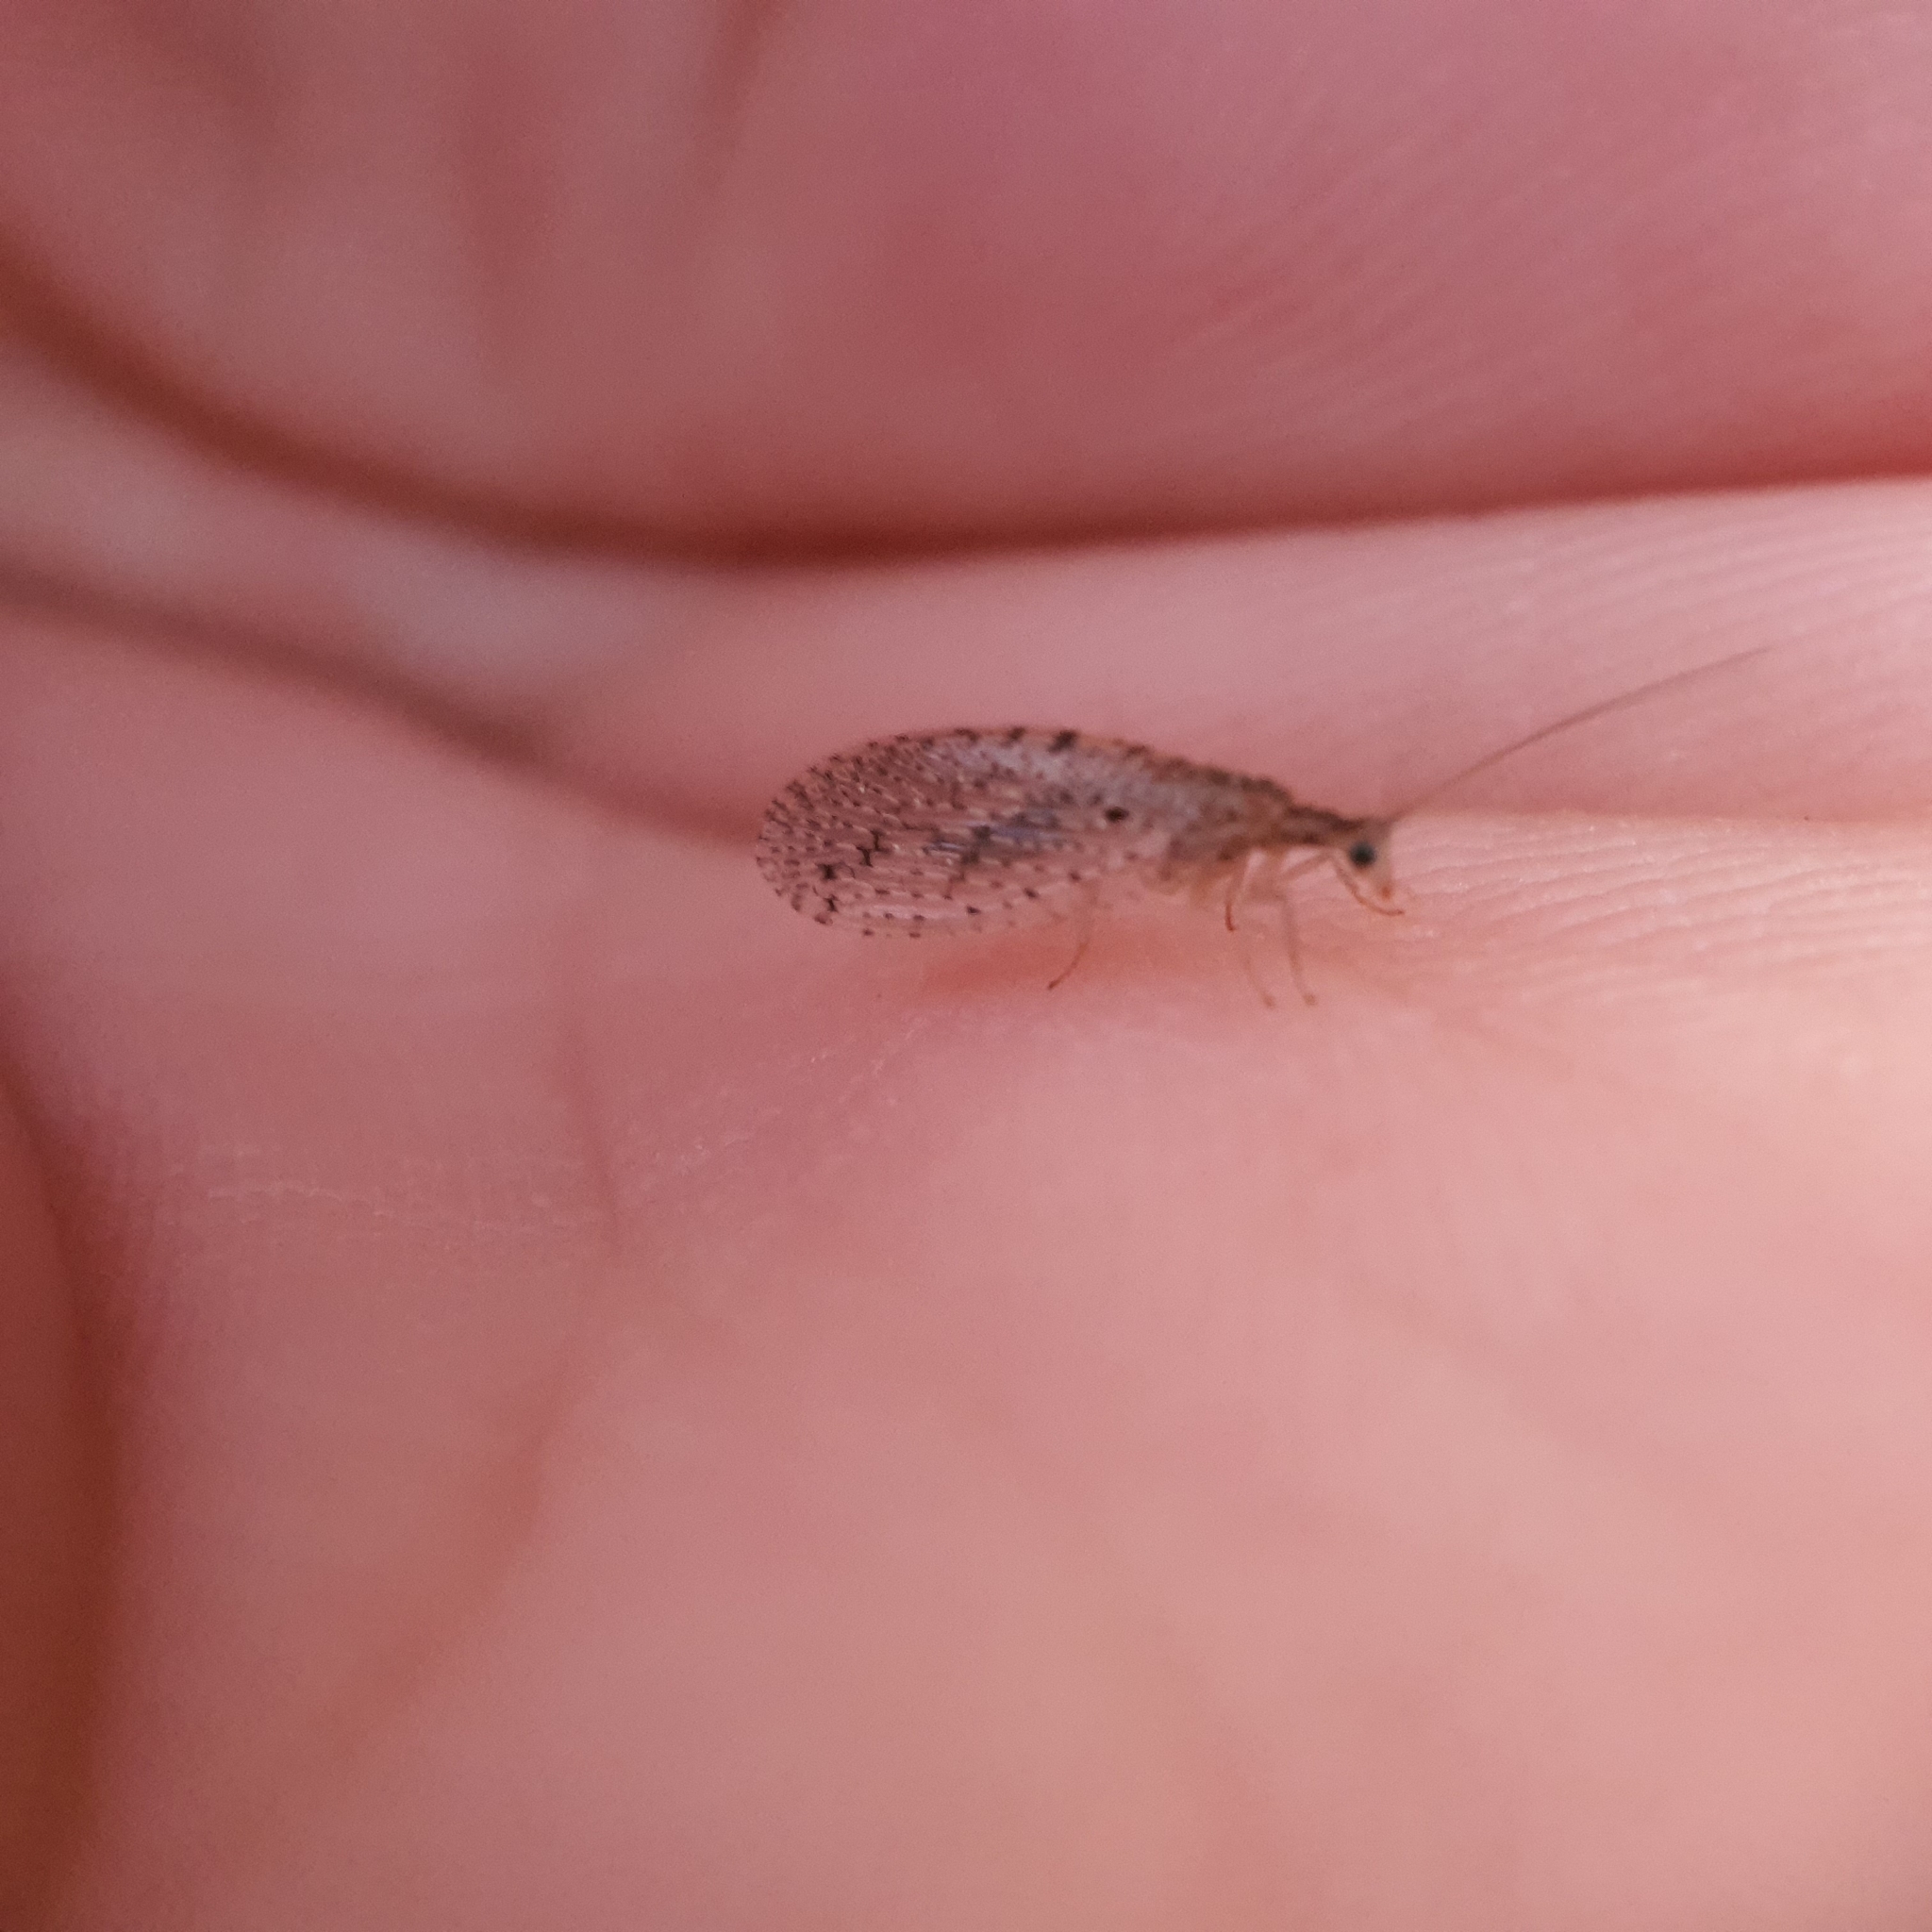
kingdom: Animalia
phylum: Arthropoda
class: Insecta
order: Neuroptera
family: Hemerobiidae
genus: Micromus
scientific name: Micromus tasmaniae
